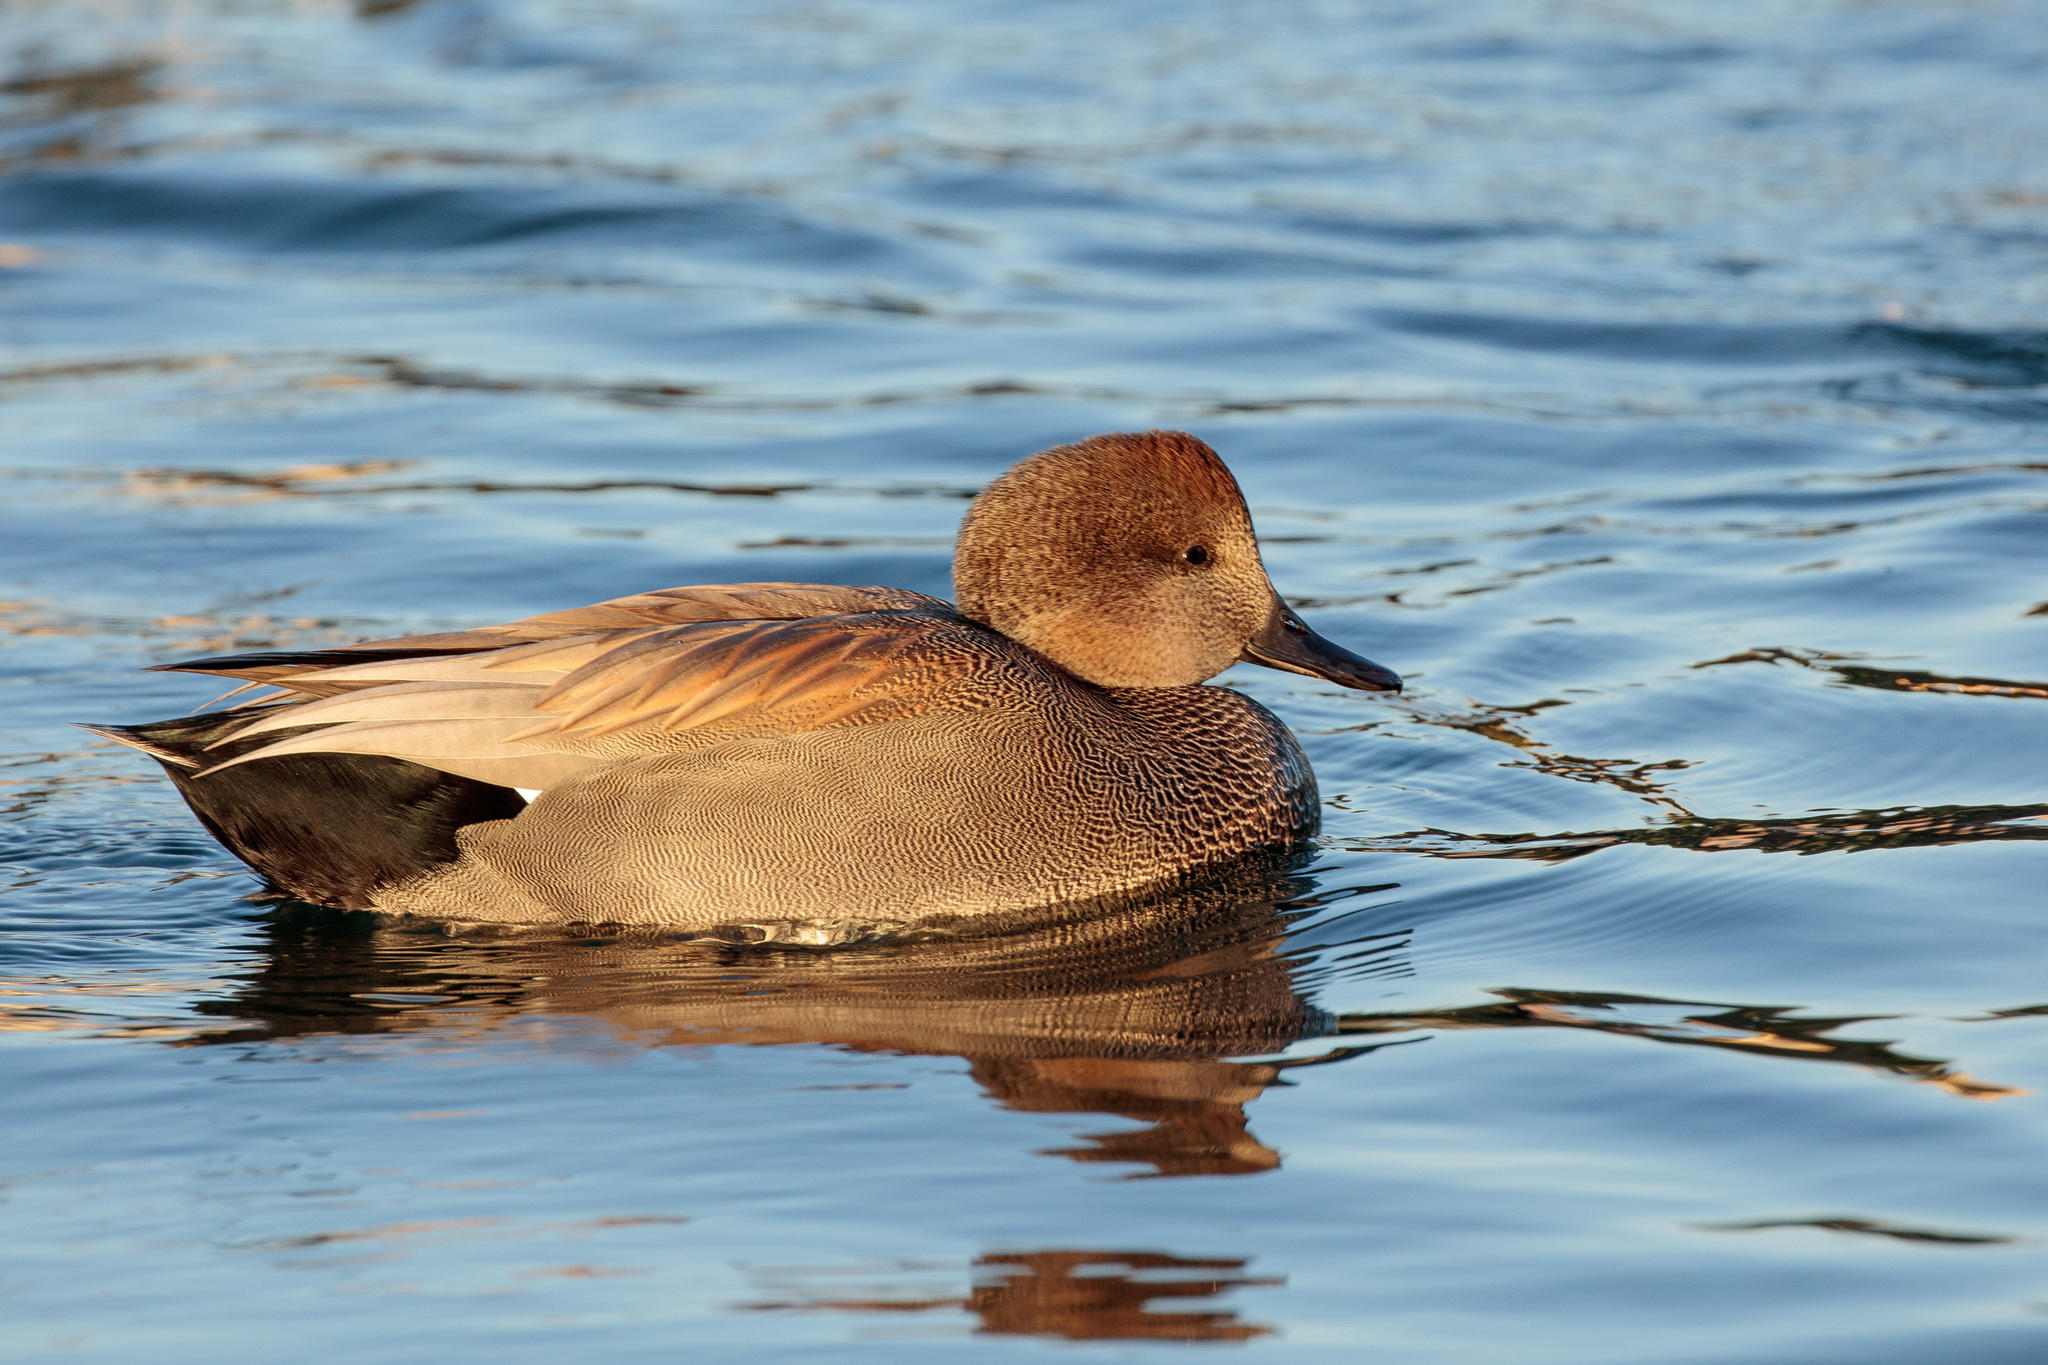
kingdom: Animalia
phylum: Chordata
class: Aves
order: Anseriformes
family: Anatidae
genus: Mareca
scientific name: Mareca strepera
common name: Gadwall
